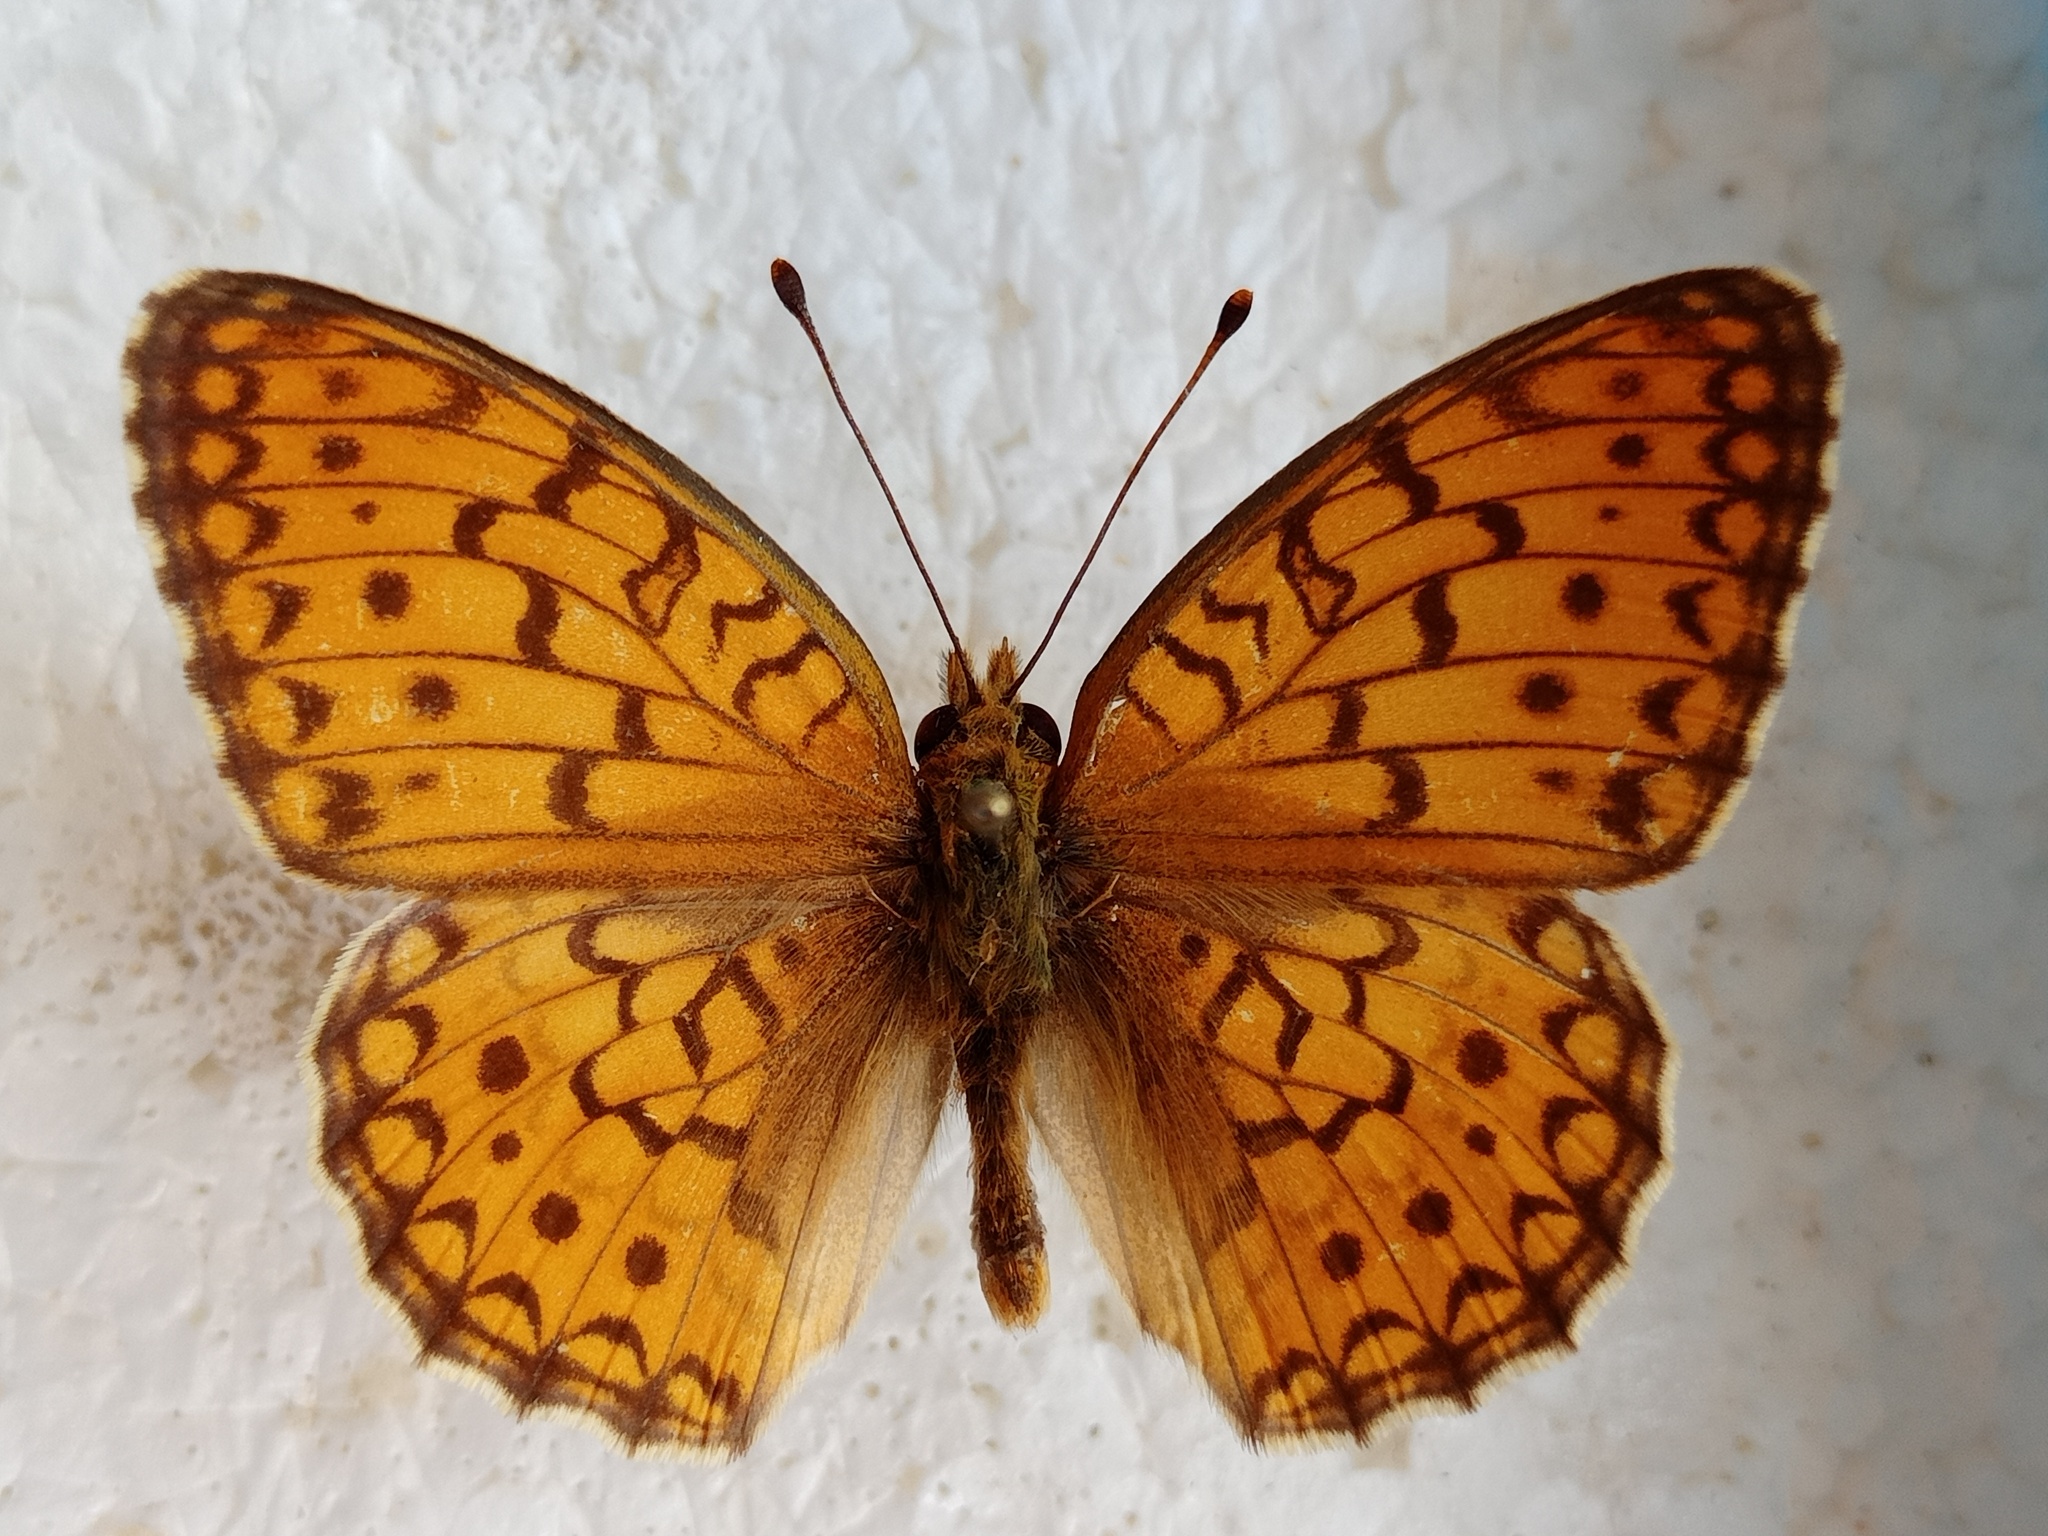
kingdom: Animalia
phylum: Arthropoda
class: Insecta
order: Lepidoptera
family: Nymphalidae
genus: Fabriciana
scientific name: Fabriciana niobe
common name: Niobe fritillary
